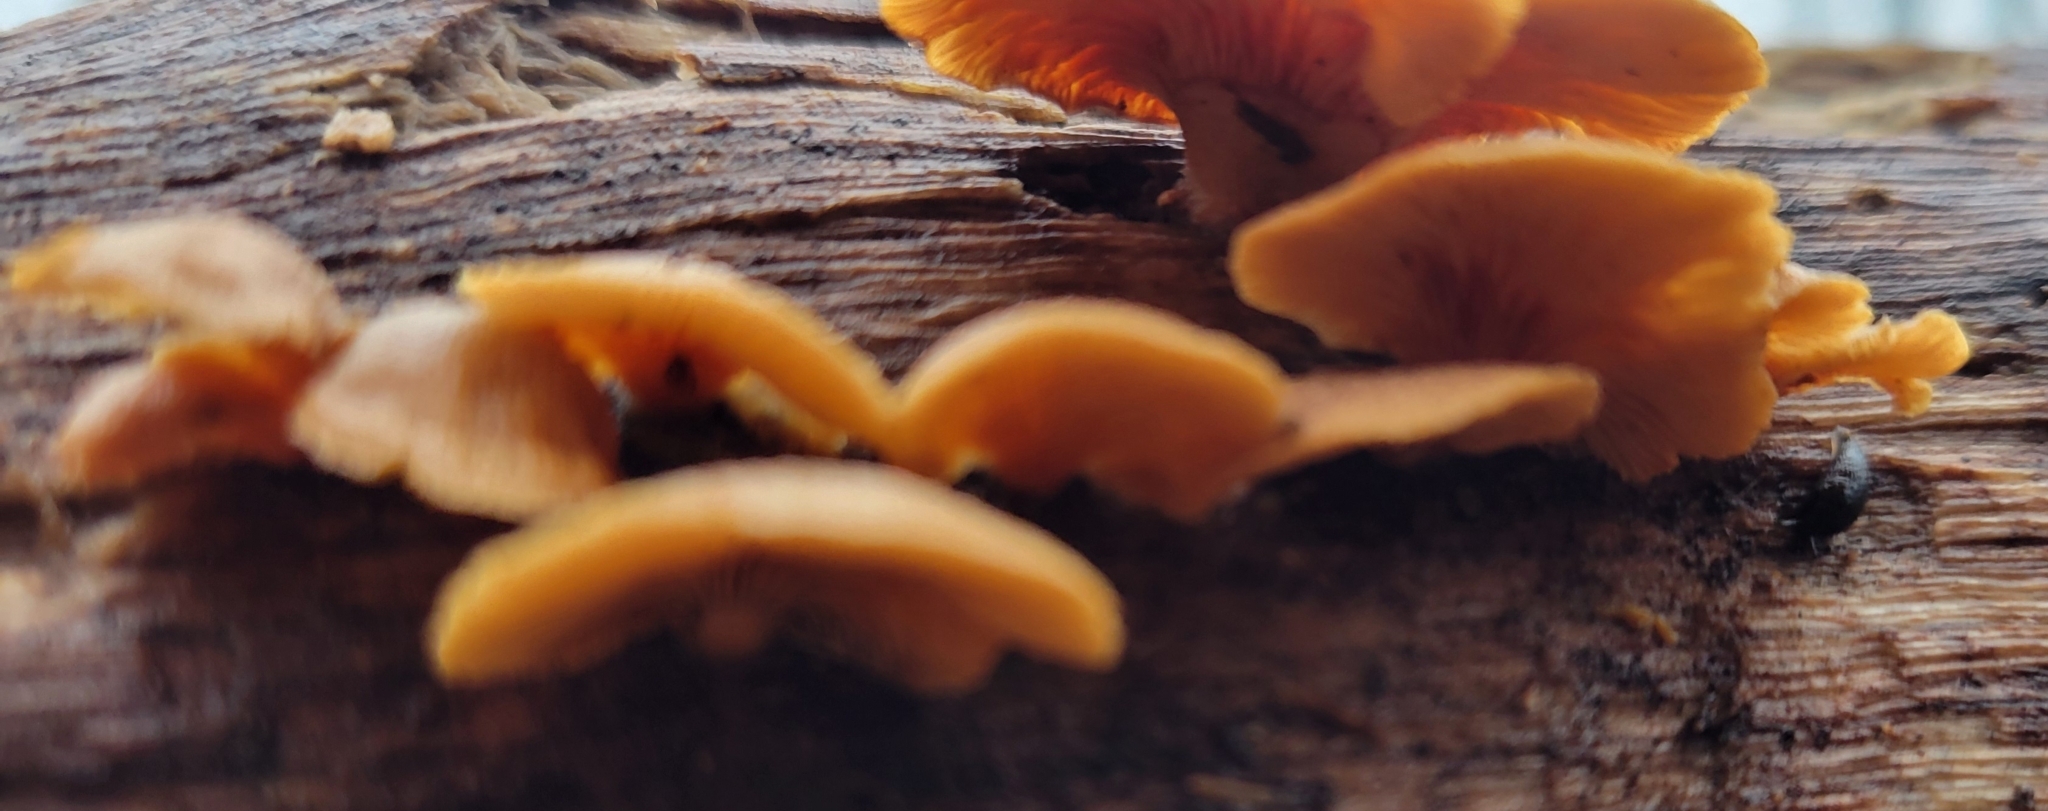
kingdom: Fungi
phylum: Basidiomycota
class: Agaricomycetes
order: Agaricales
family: Mycenaceae
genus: Panellus
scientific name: Panellus stipticus
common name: Bitter oysterling
